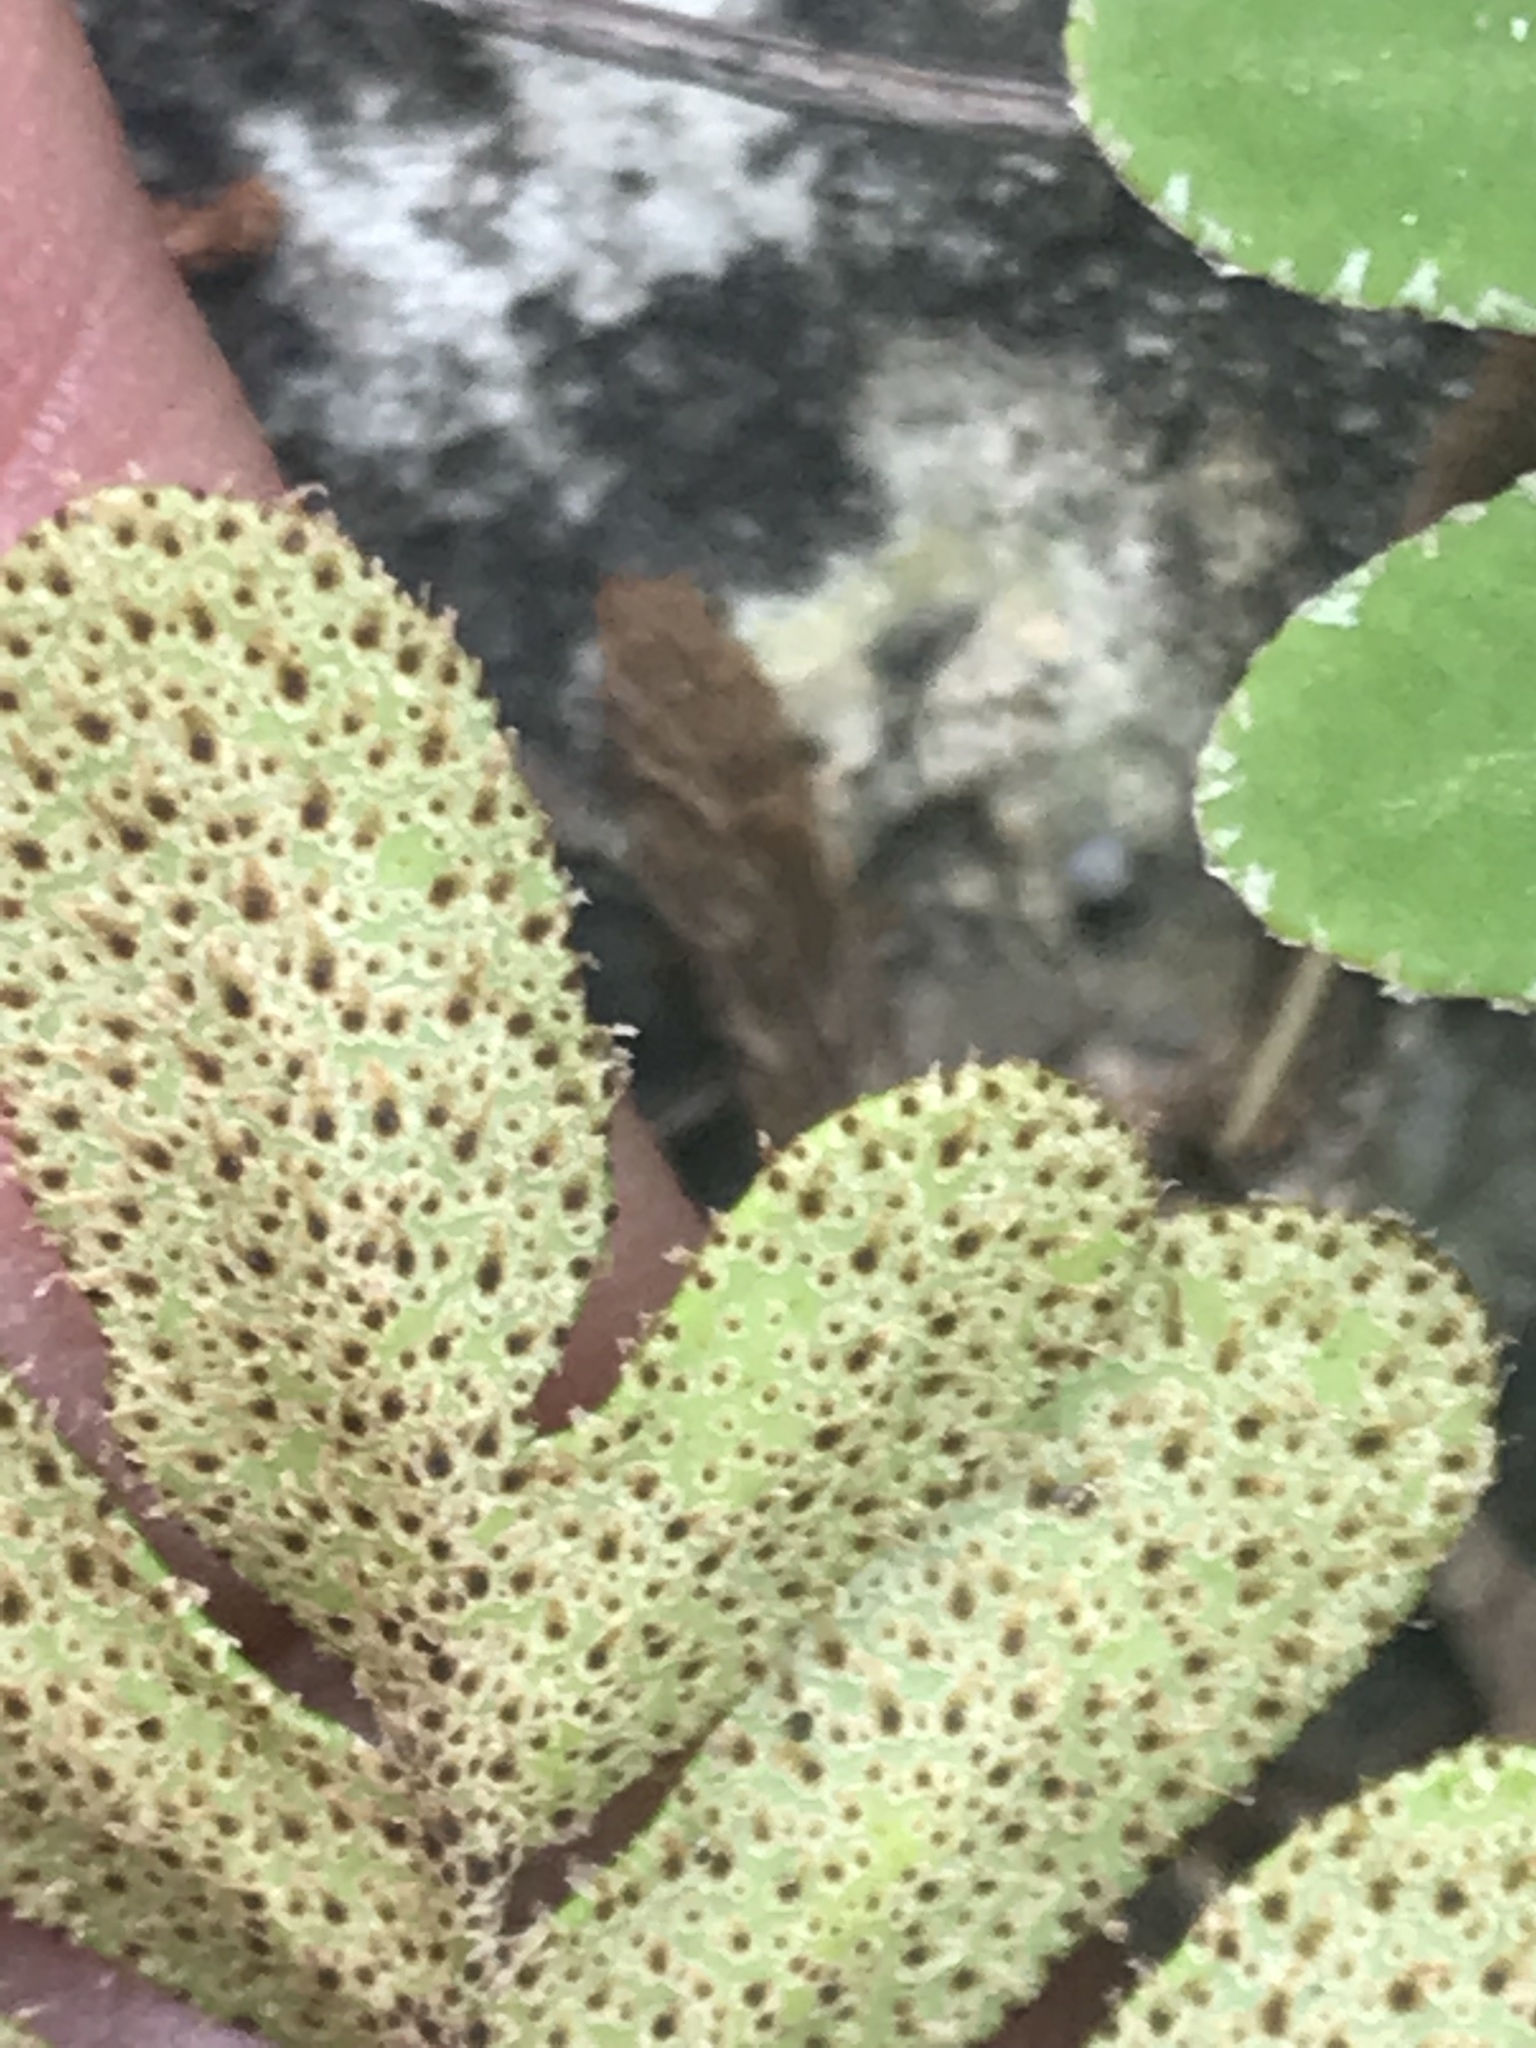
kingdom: Plantae
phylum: Tracheophyta
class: Polypodiopsida
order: Polypodiales
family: Polypodiaceae
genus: Pleopeltis
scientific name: Pleopeltis michauxiana
